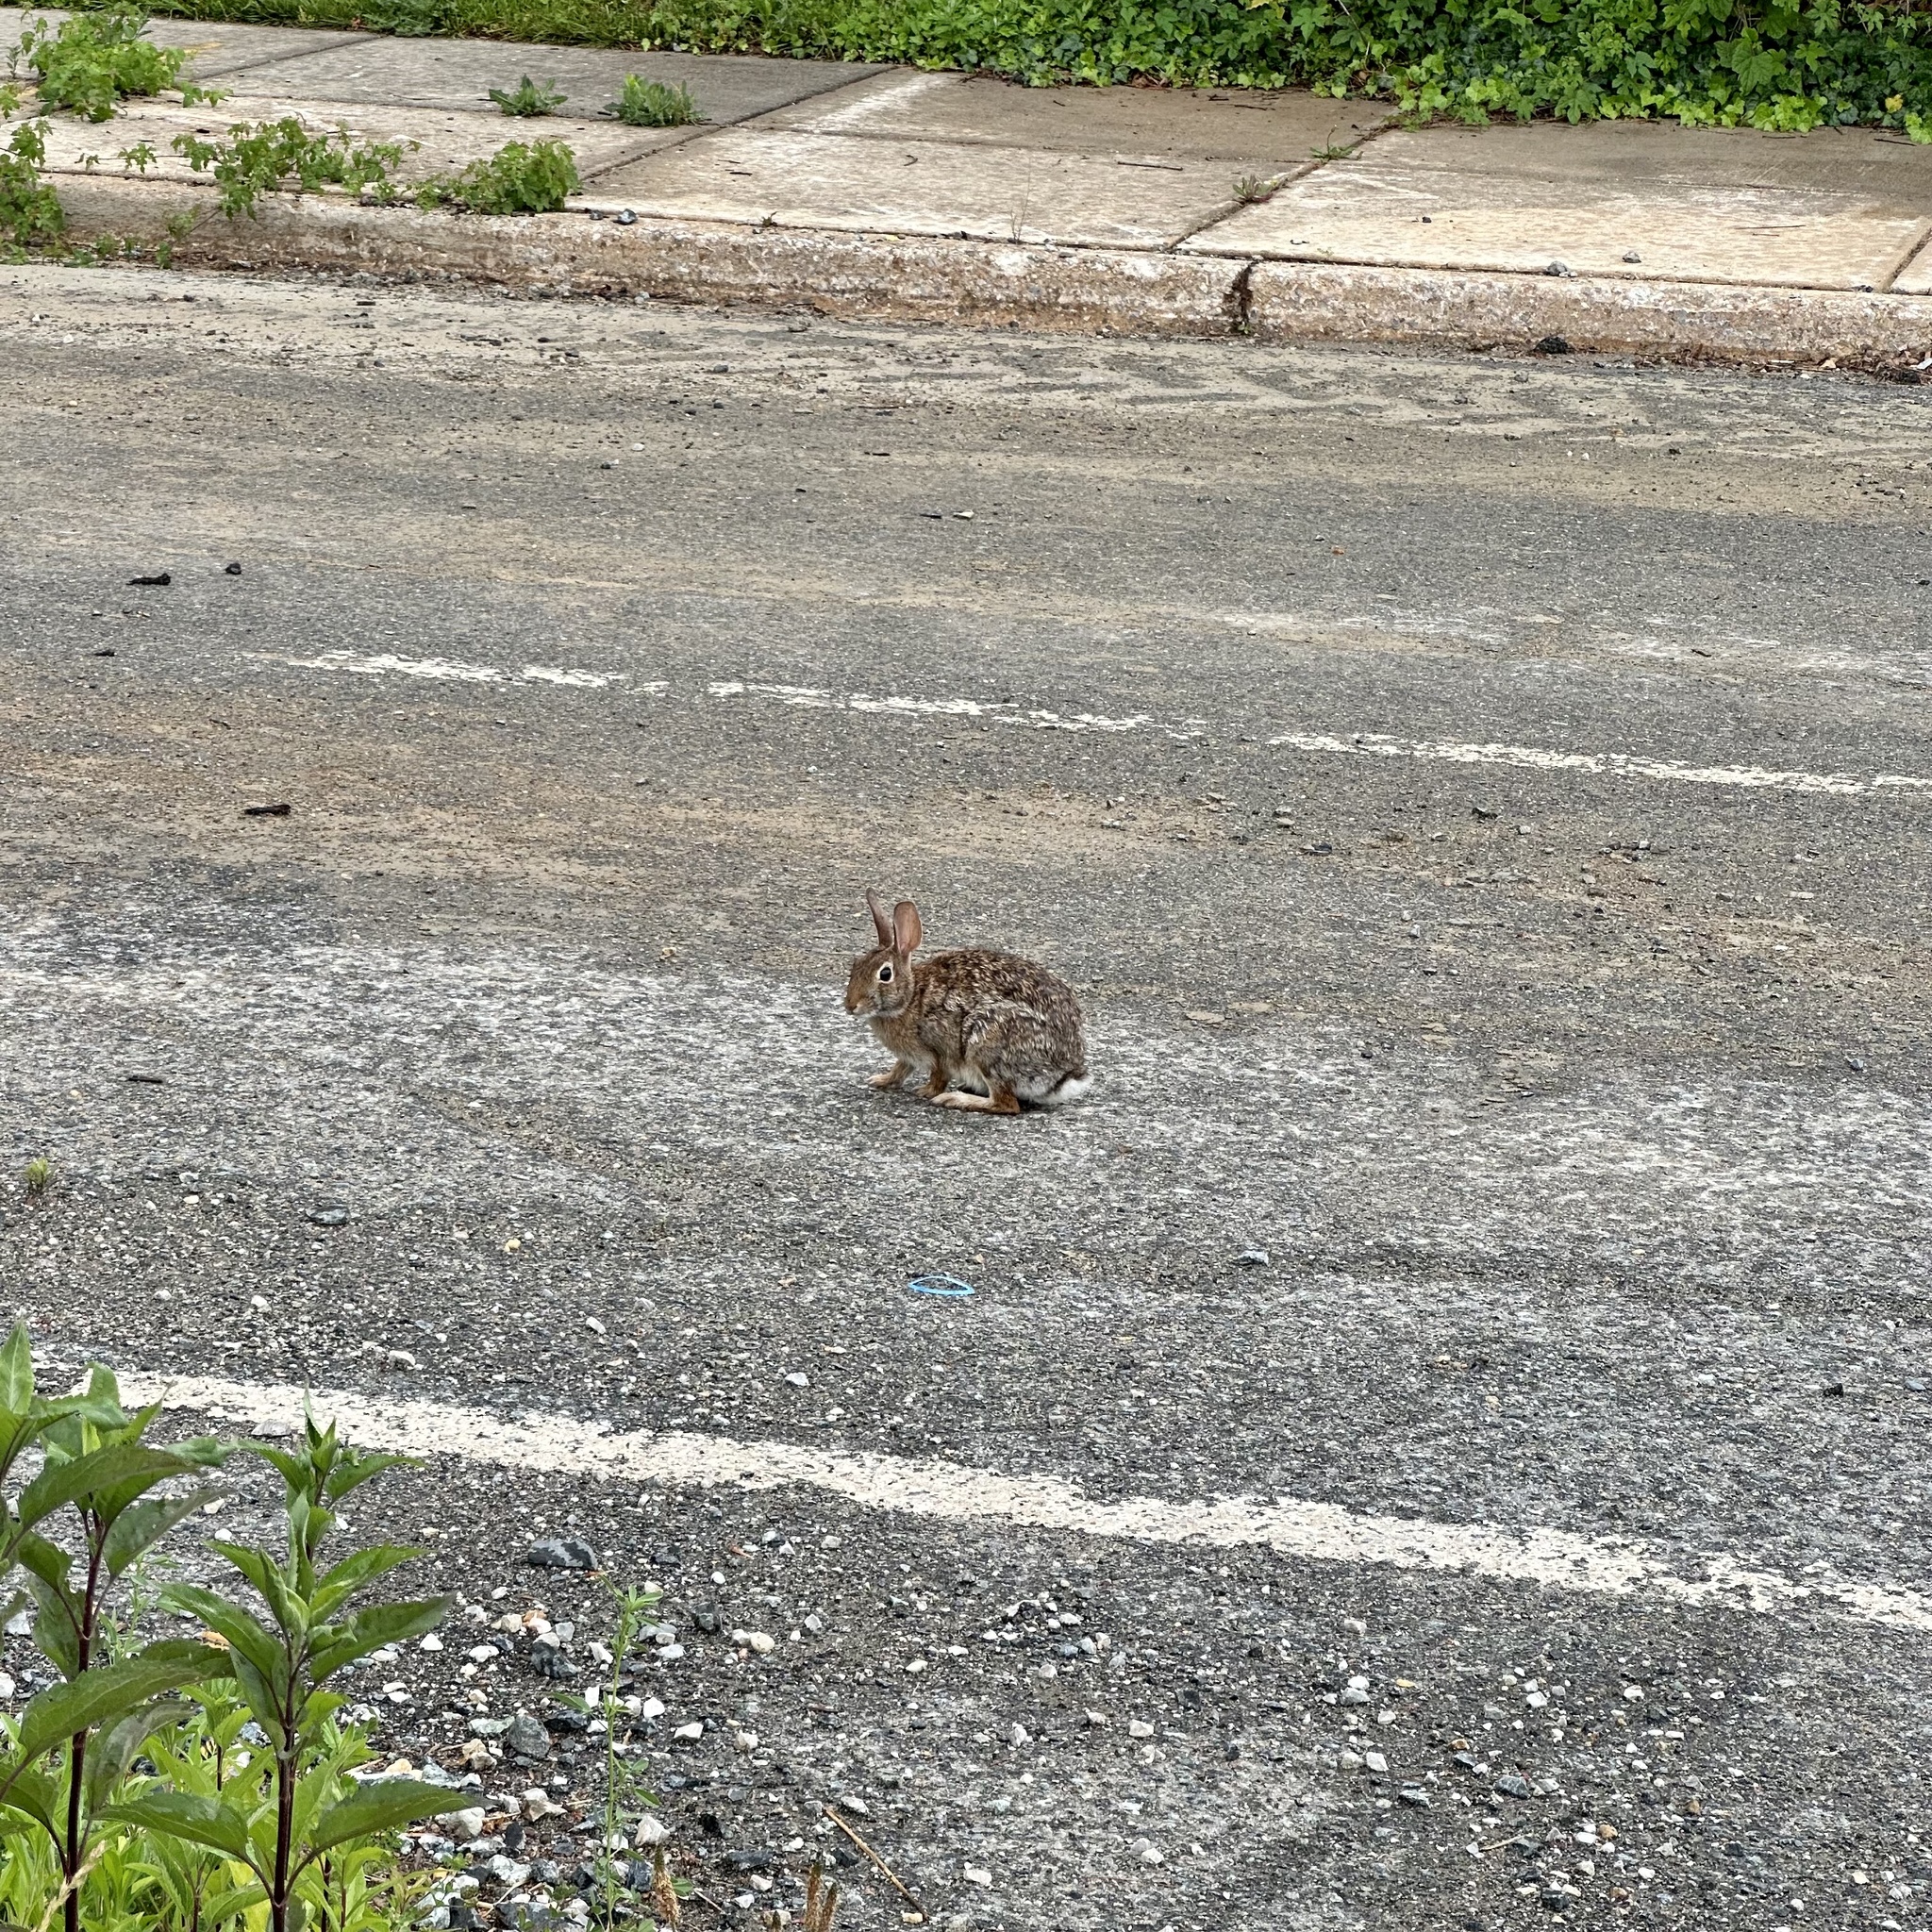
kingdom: Animalia
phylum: Chordata
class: Mammalia
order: Lagomorpha
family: Leporidae
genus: Sylvilagus
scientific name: Sylvilagus floridanus
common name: Eastern cottontail
